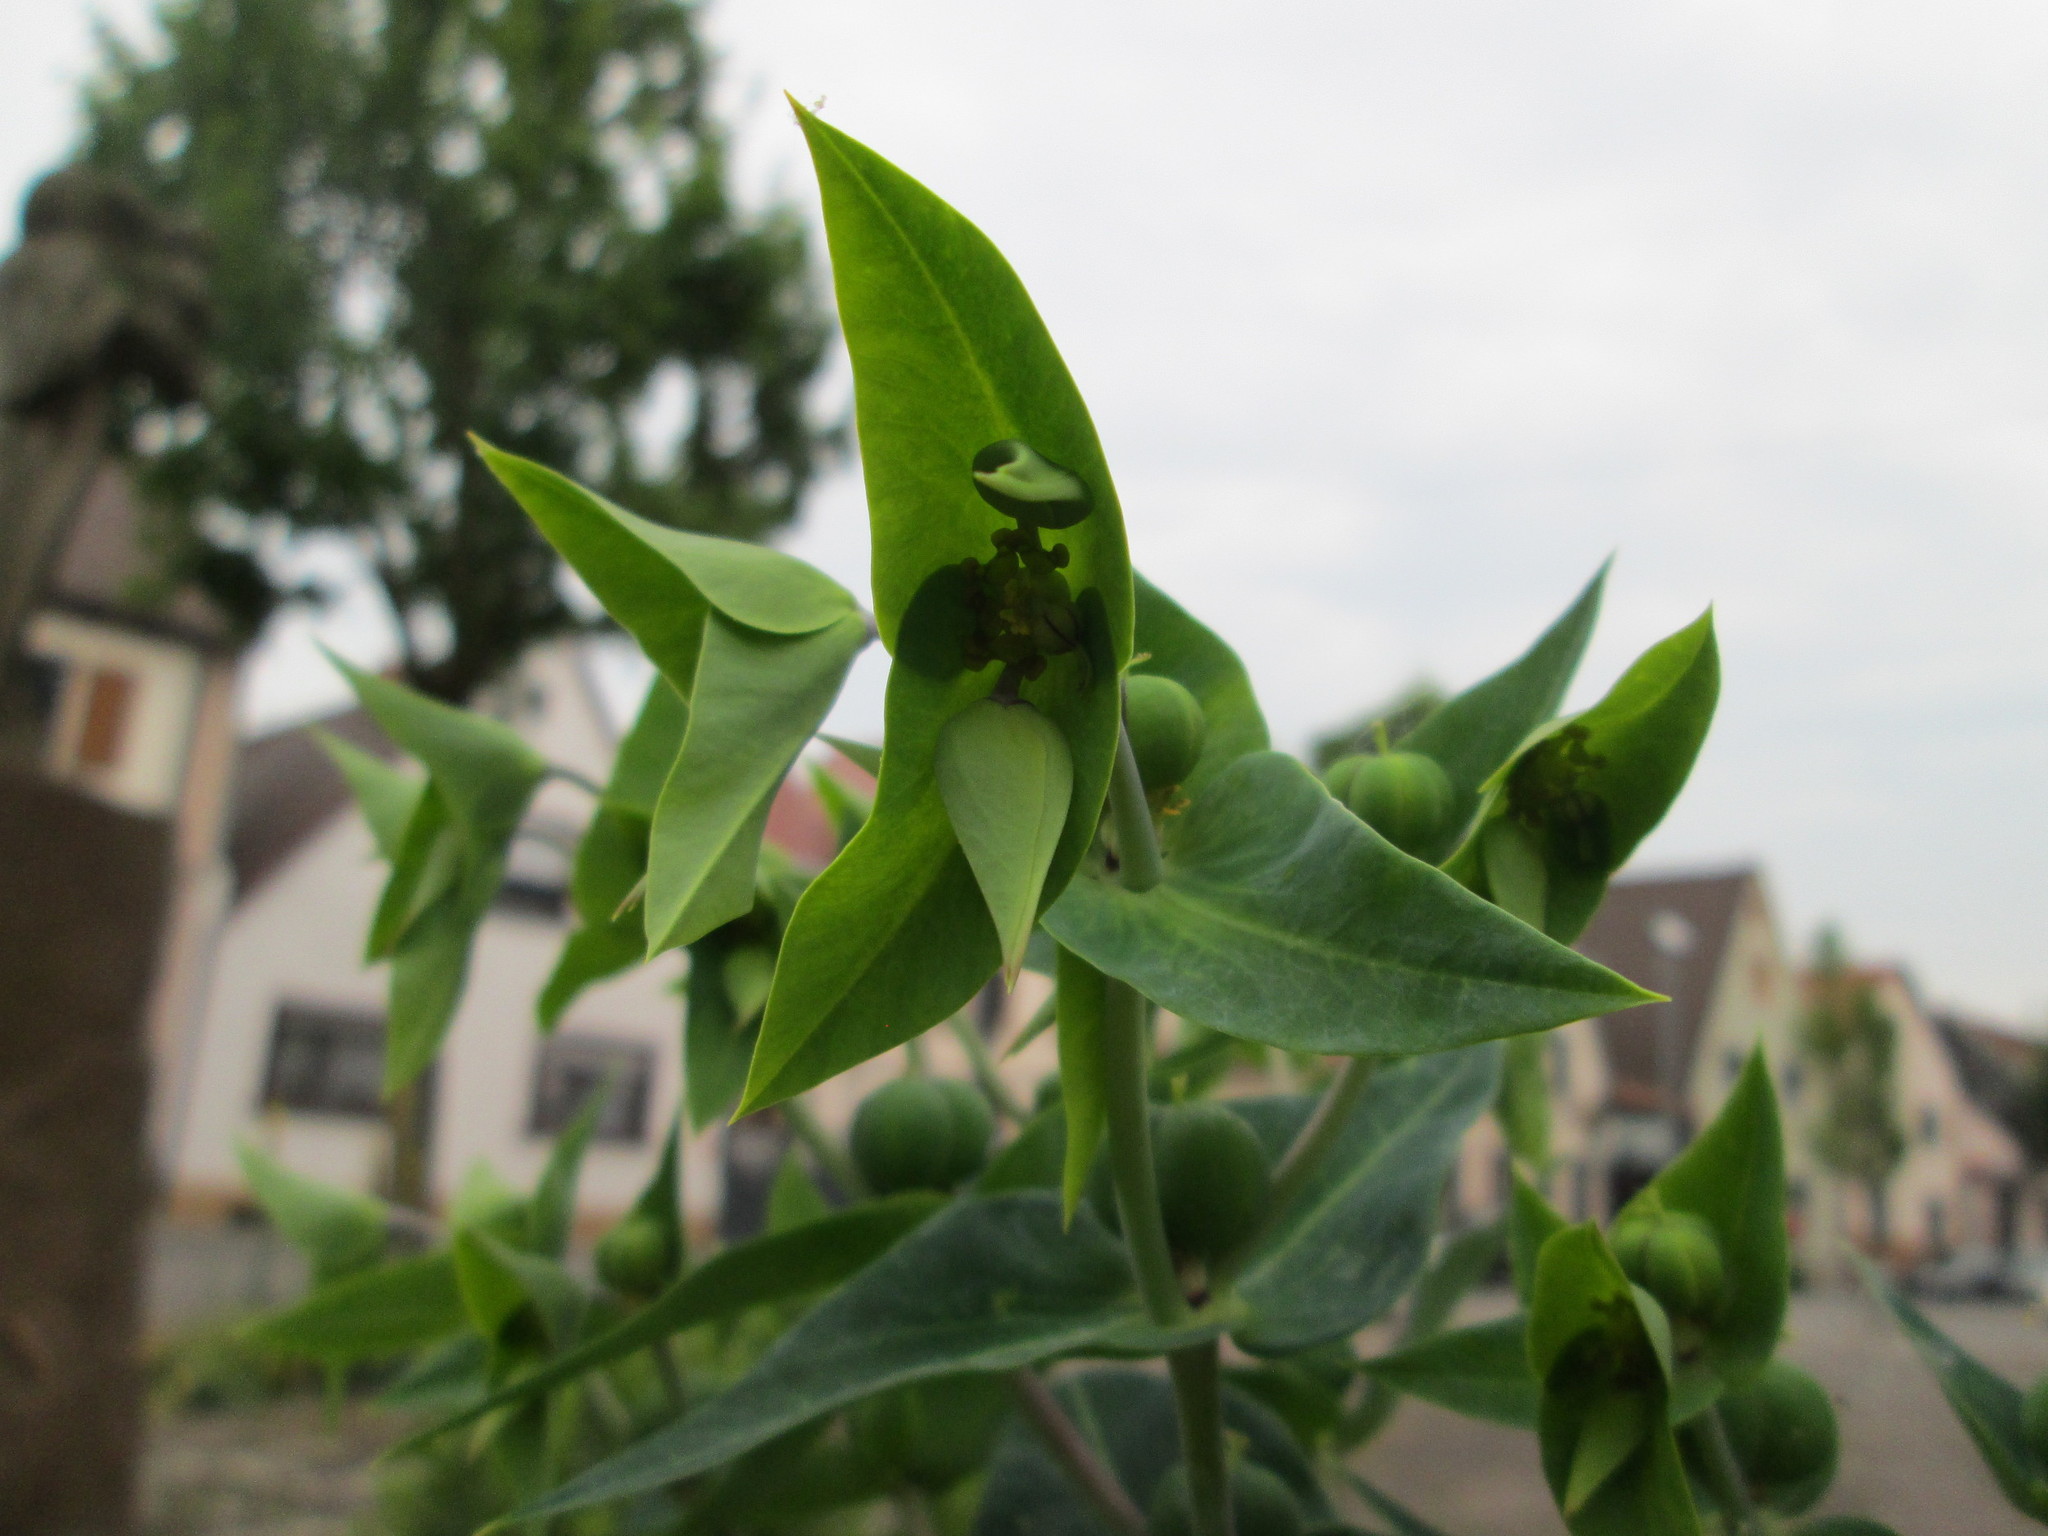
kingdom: Plantae
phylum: Tracheophyta
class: Magnoliopsida
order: Malpighiales
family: Euphorbiaceae
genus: Euphorbia
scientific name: Euphorbia lathyris
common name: Caper spurge
